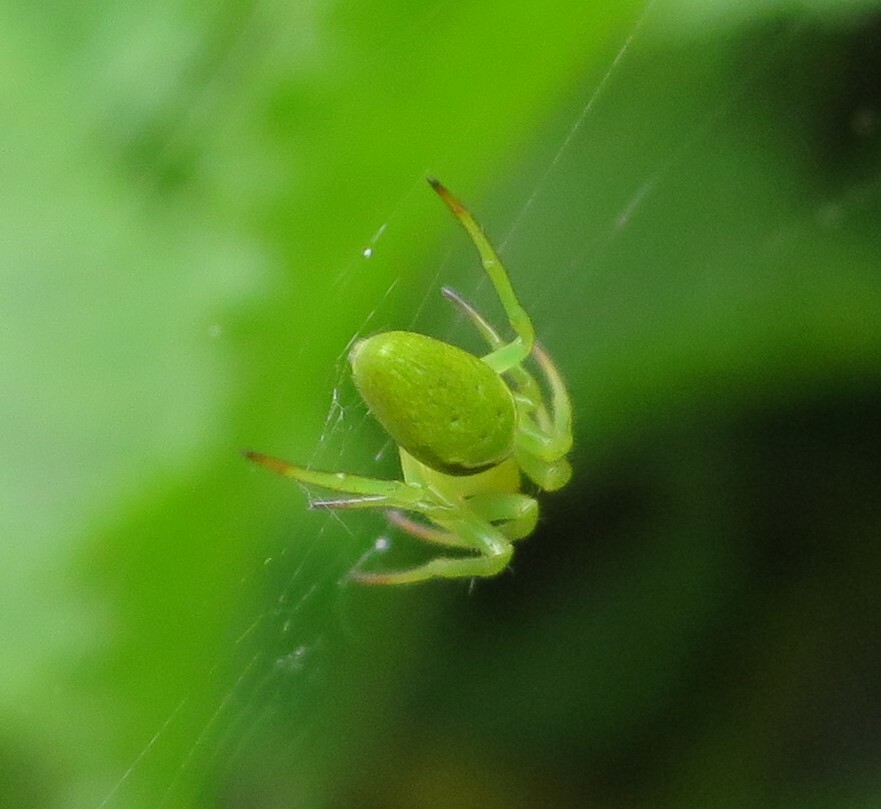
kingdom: Animalia
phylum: Arthropoda
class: Arachnida
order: Araneae
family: Araneidae
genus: Colaranea
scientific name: Colaranea viriditas
